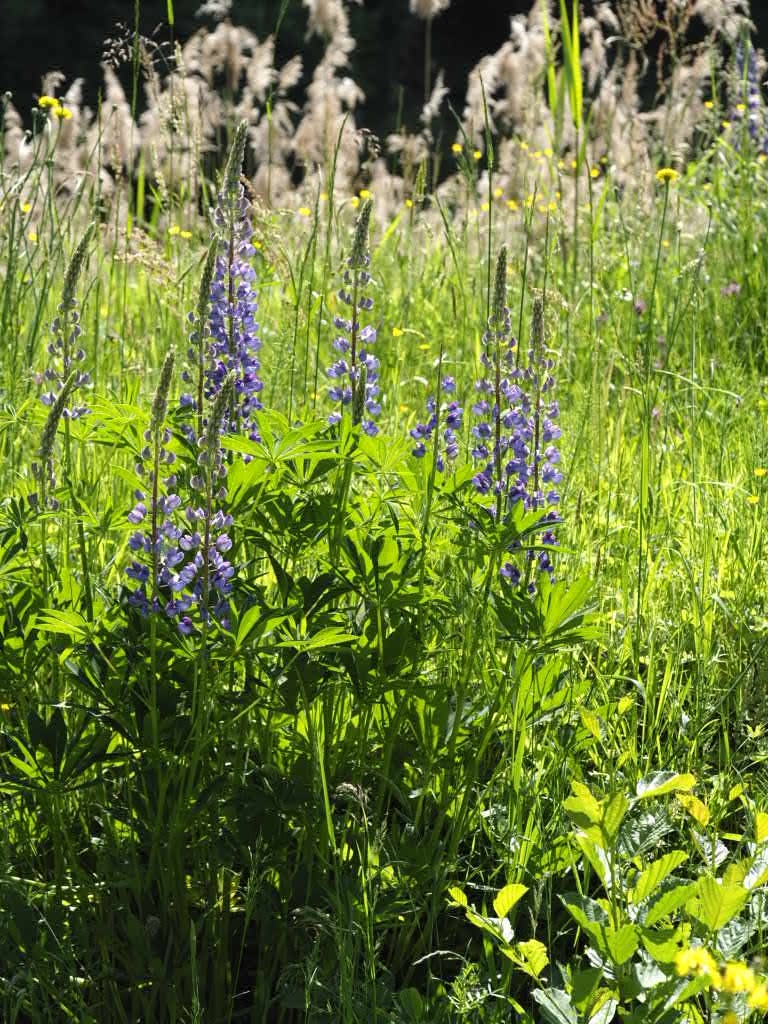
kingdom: Plantae
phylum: Tracheophyta
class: Magnoliopsida
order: Fabales
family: Fabaceae
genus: Lupinus
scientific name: Lupinus polyphyllus
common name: Garden lupin
